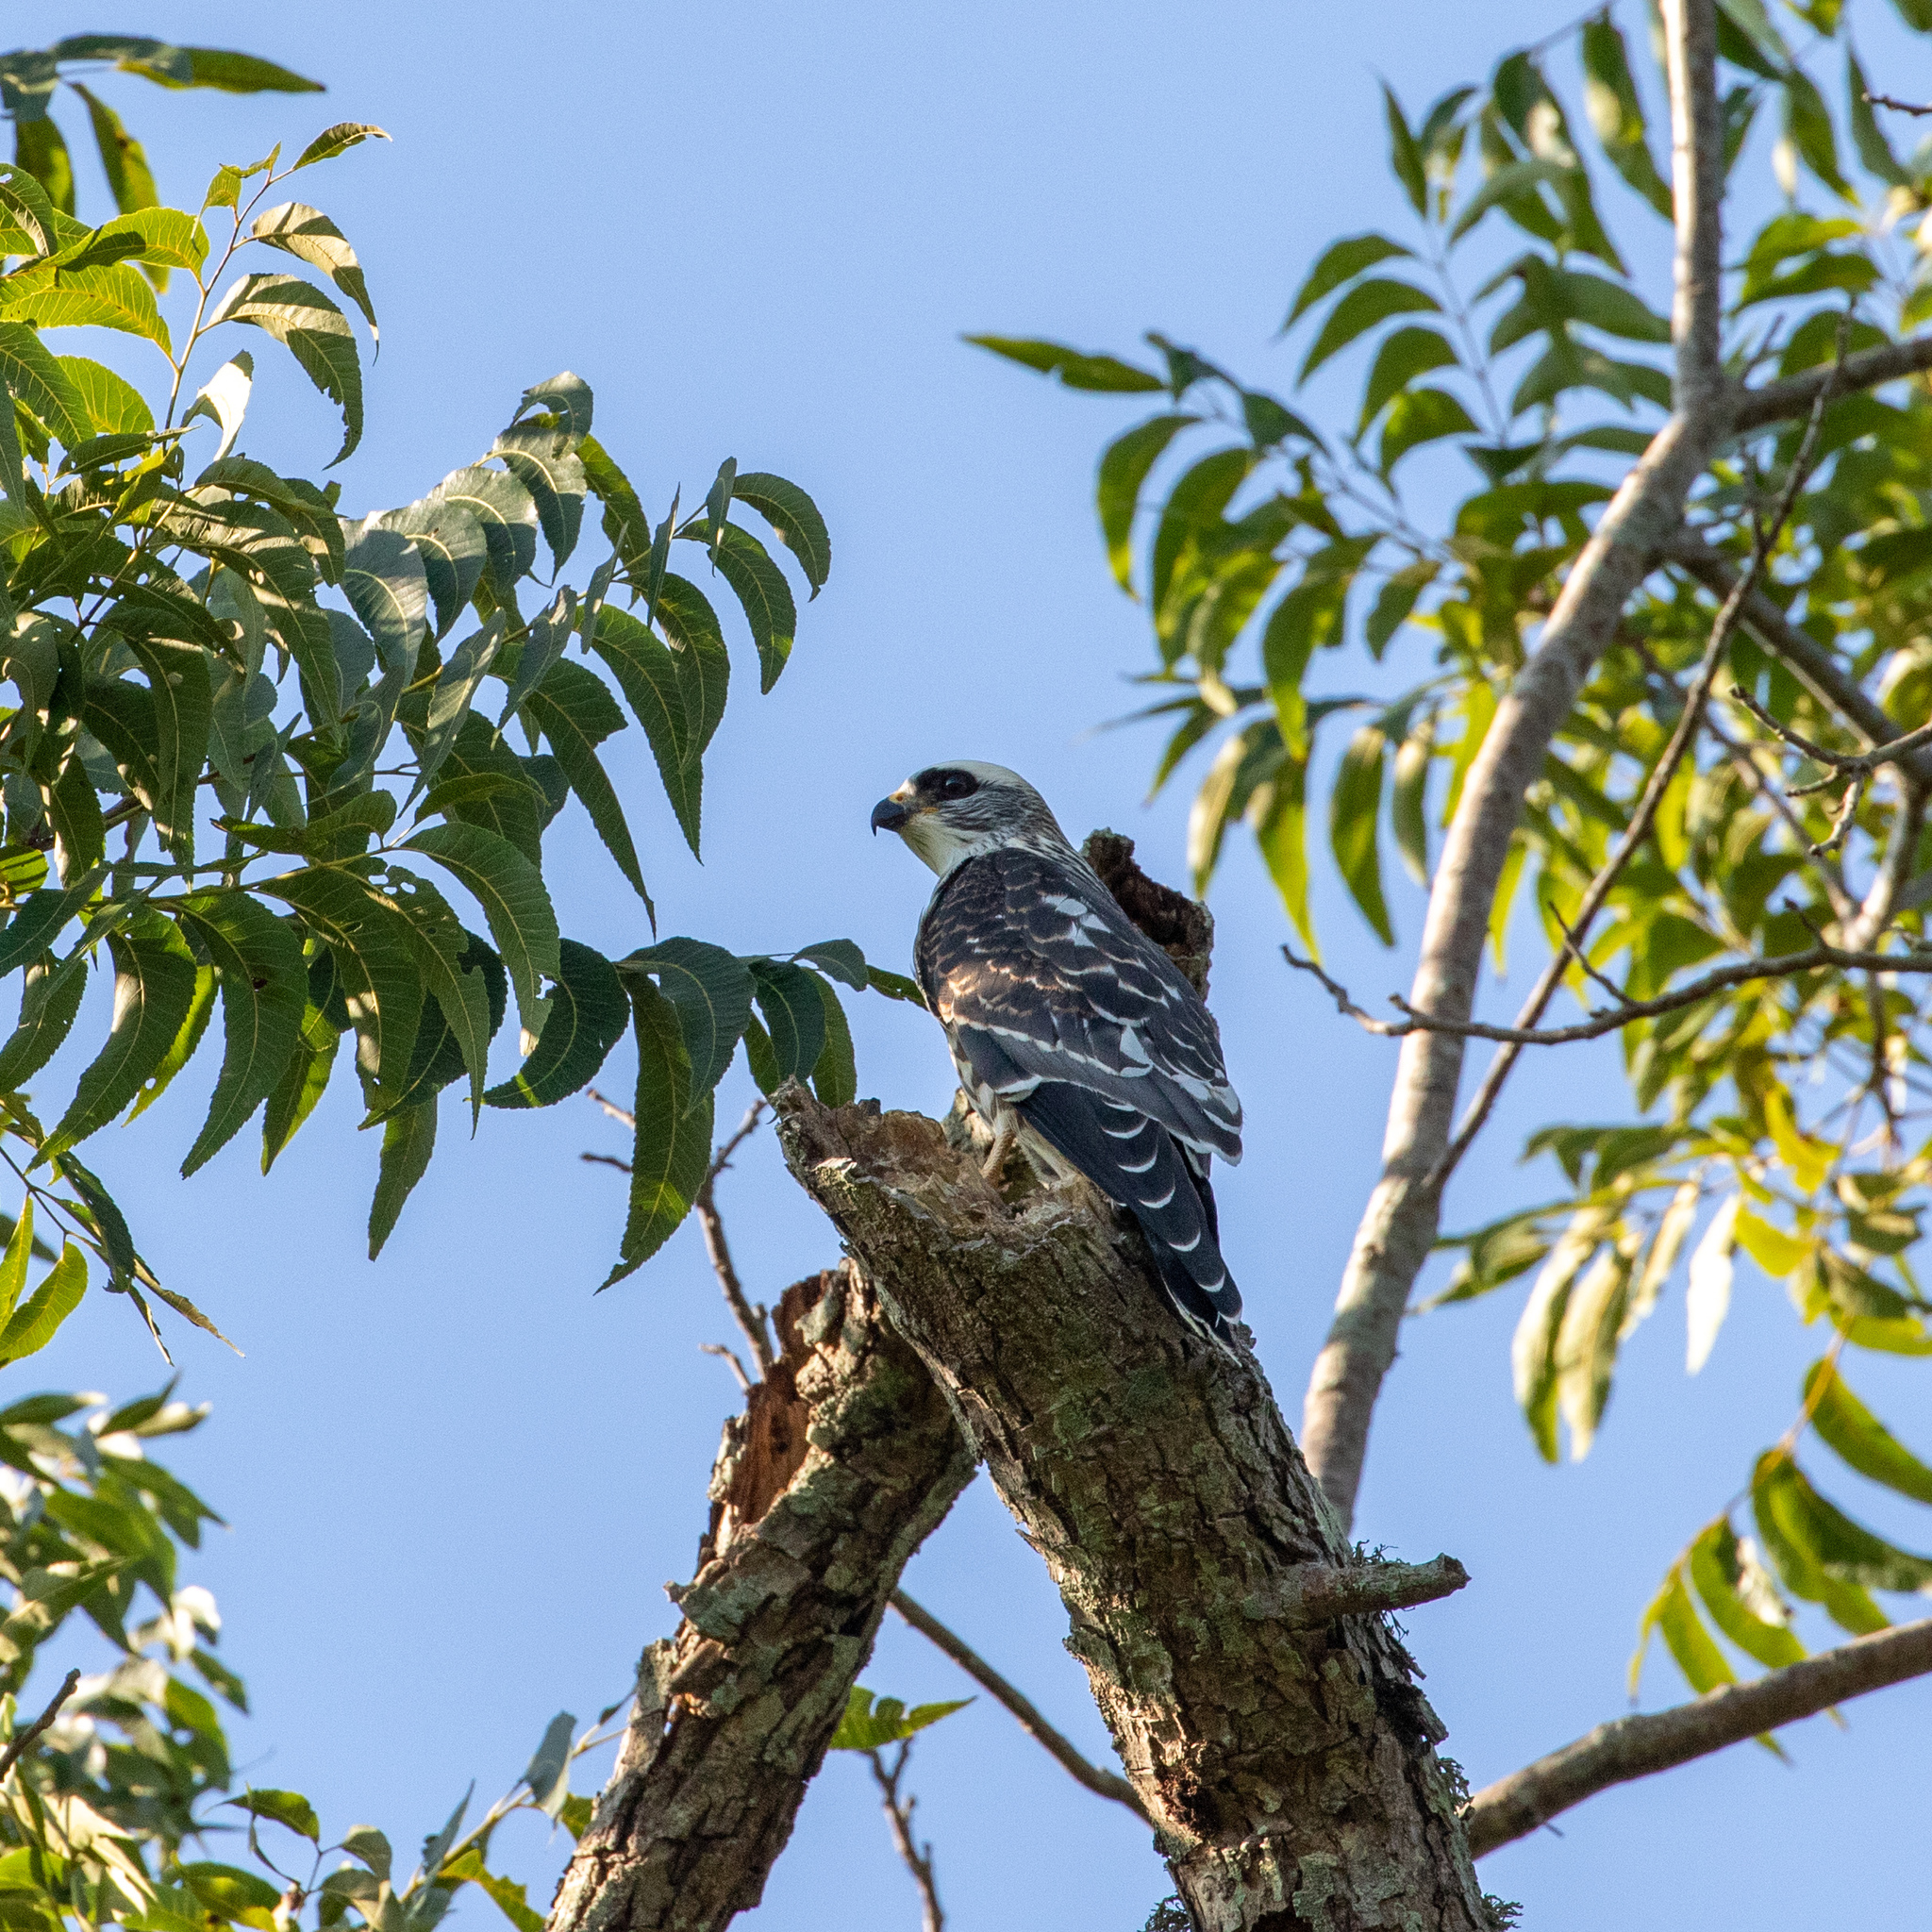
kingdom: Animalia
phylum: Chordata
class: Aves
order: Accipitriformes
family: Accipitridae
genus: Ictinia
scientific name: Ictinia mississippiensis
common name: Mississippi kite
